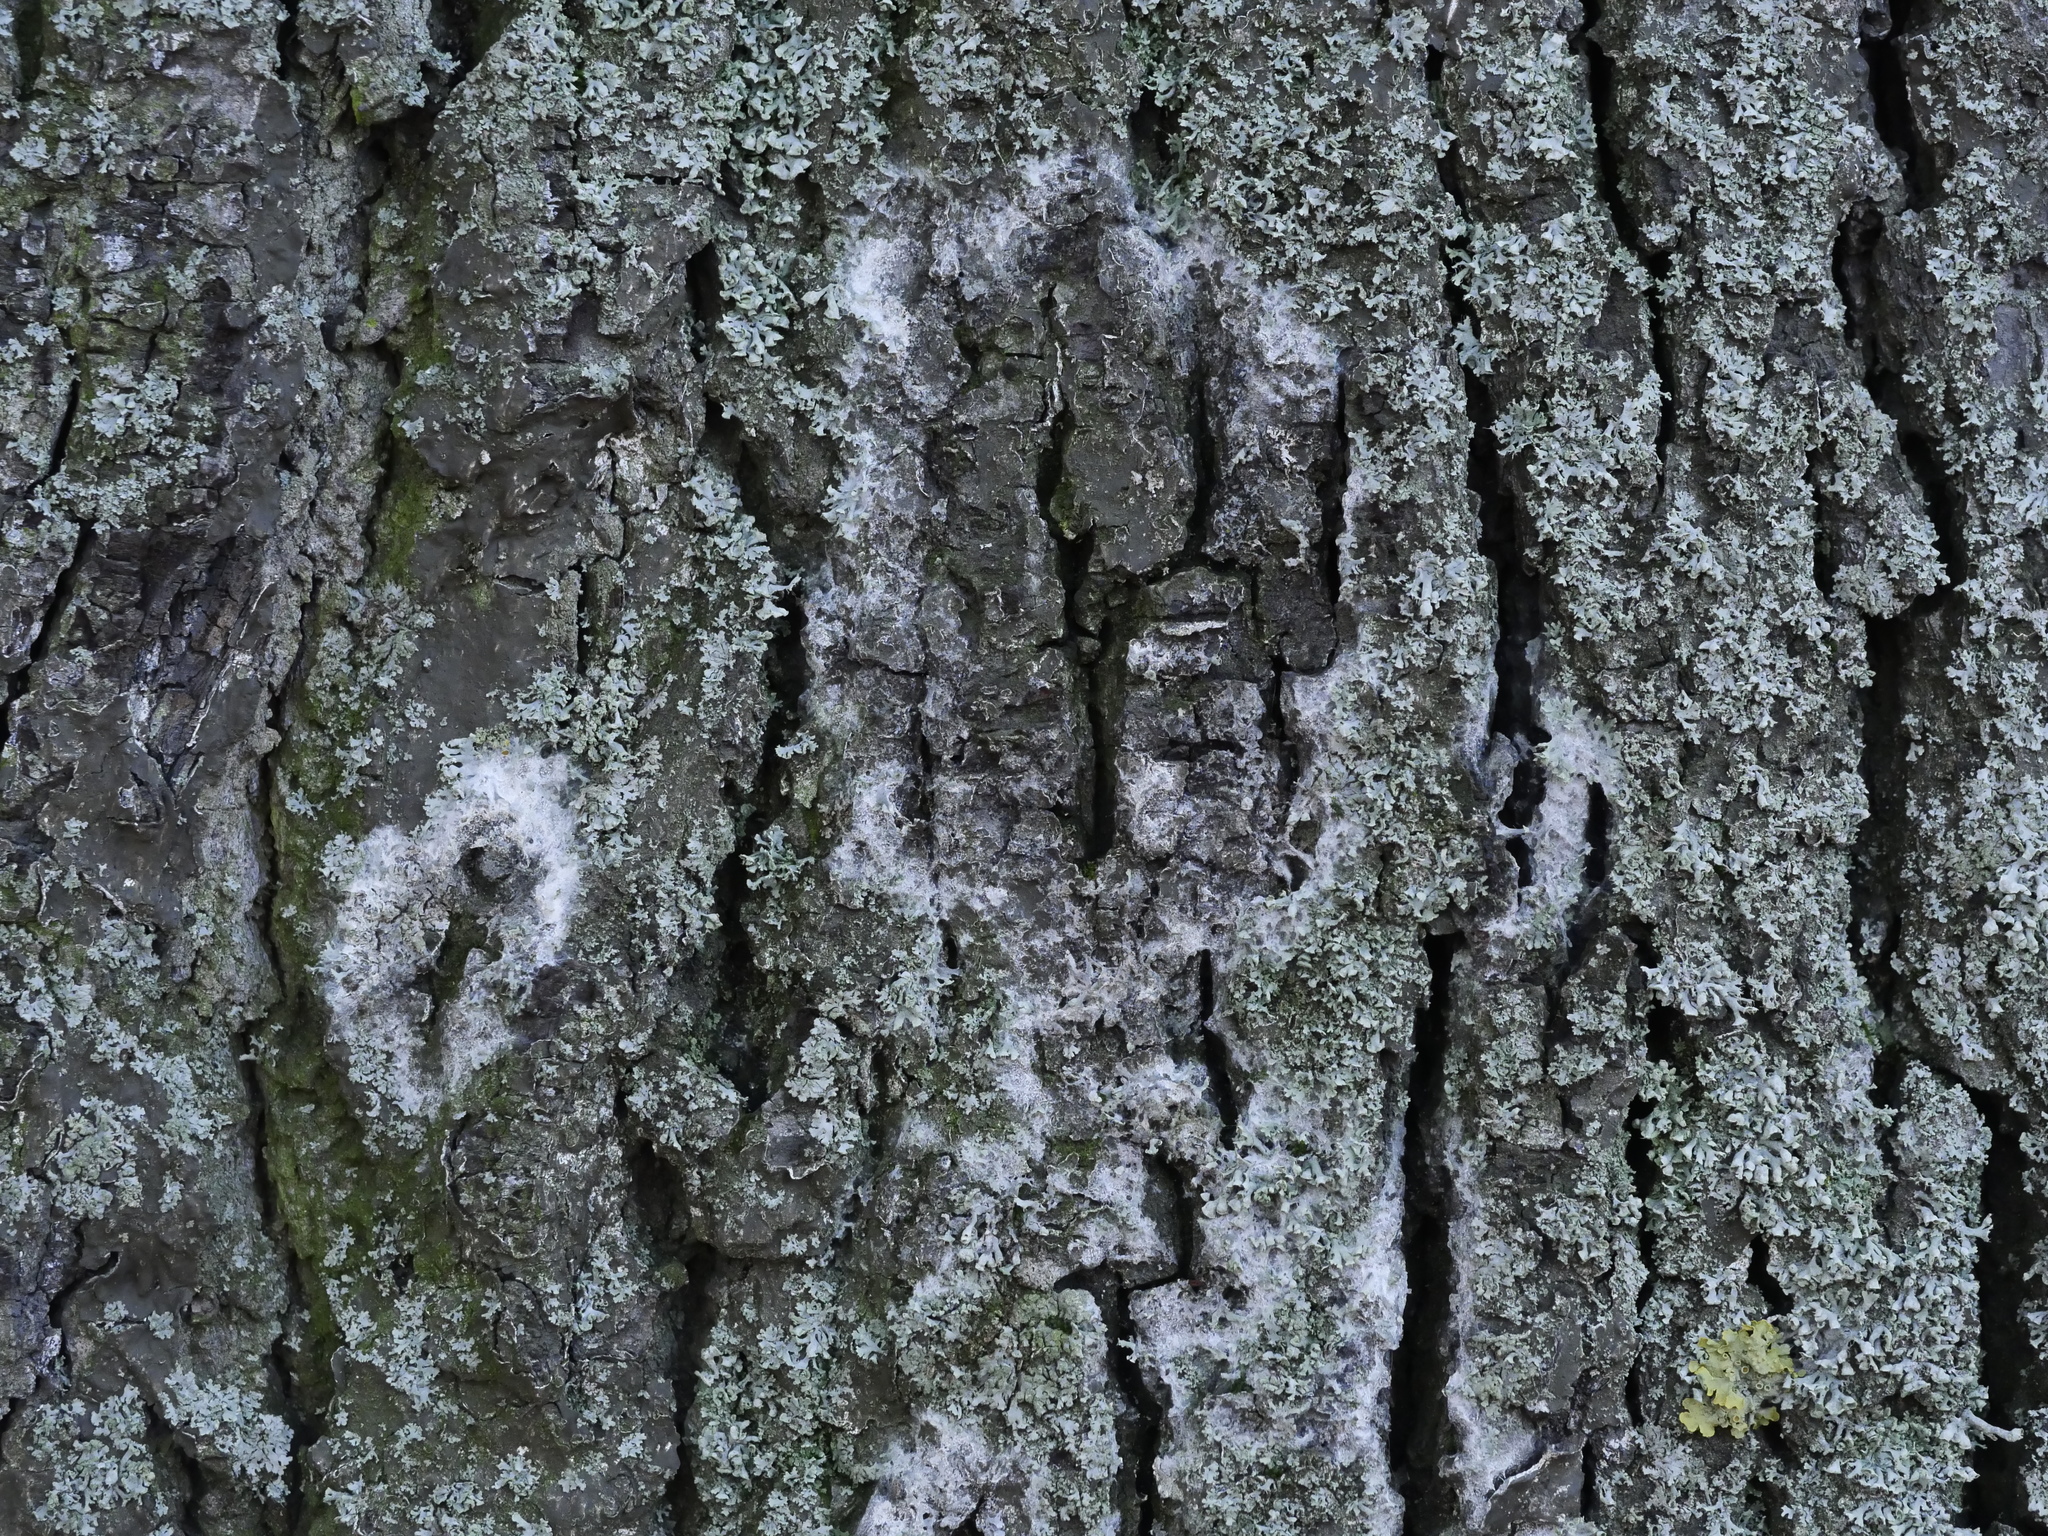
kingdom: Fungi
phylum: Basidiomycota
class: Agaricomycetes
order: Atheliales
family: Atheliaceae
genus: Athelia
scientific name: Athelia arachnoidea
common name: Candelabra duster
